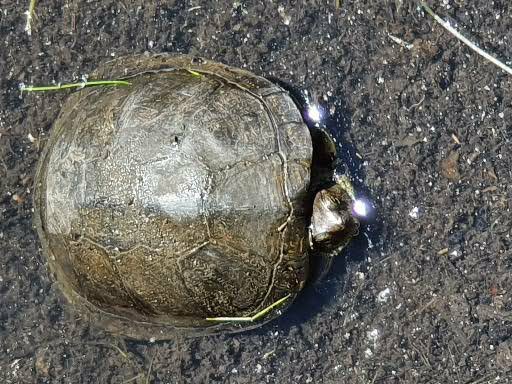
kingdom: Animalia
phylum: Chordata
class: Testudines
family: Emydidae
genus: Emys
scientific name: Emys orbicularis
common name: European pond turtle
